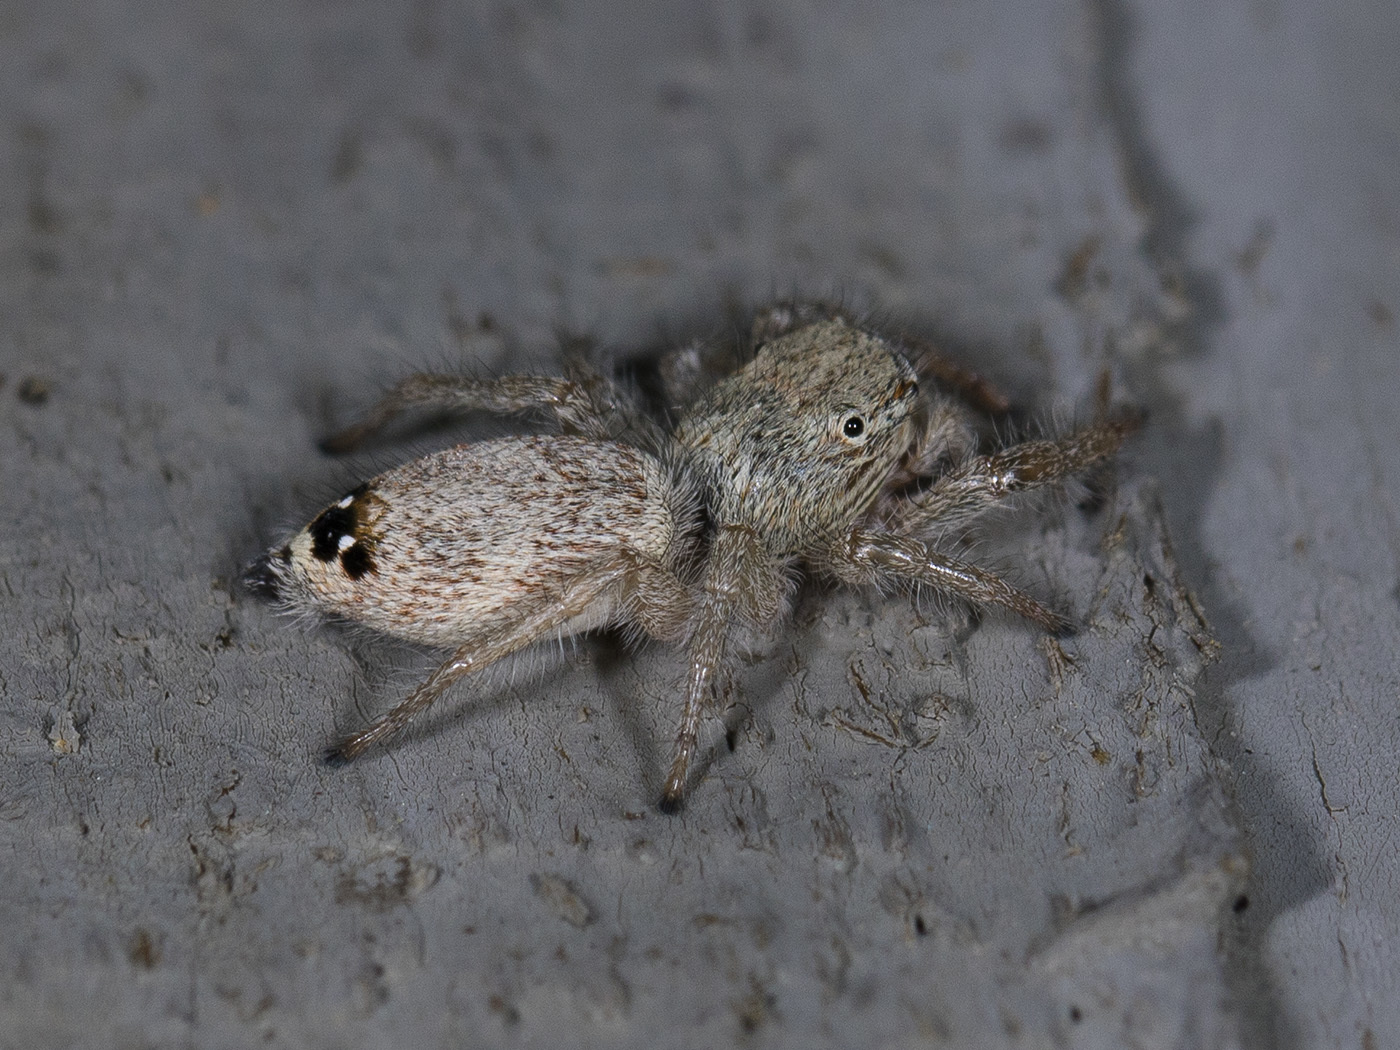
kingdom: Animalia
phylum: Arthropoda
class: Arachnida
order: Araneae
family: Salticidae
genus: Rudakius
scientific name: Rudakius cinctus
